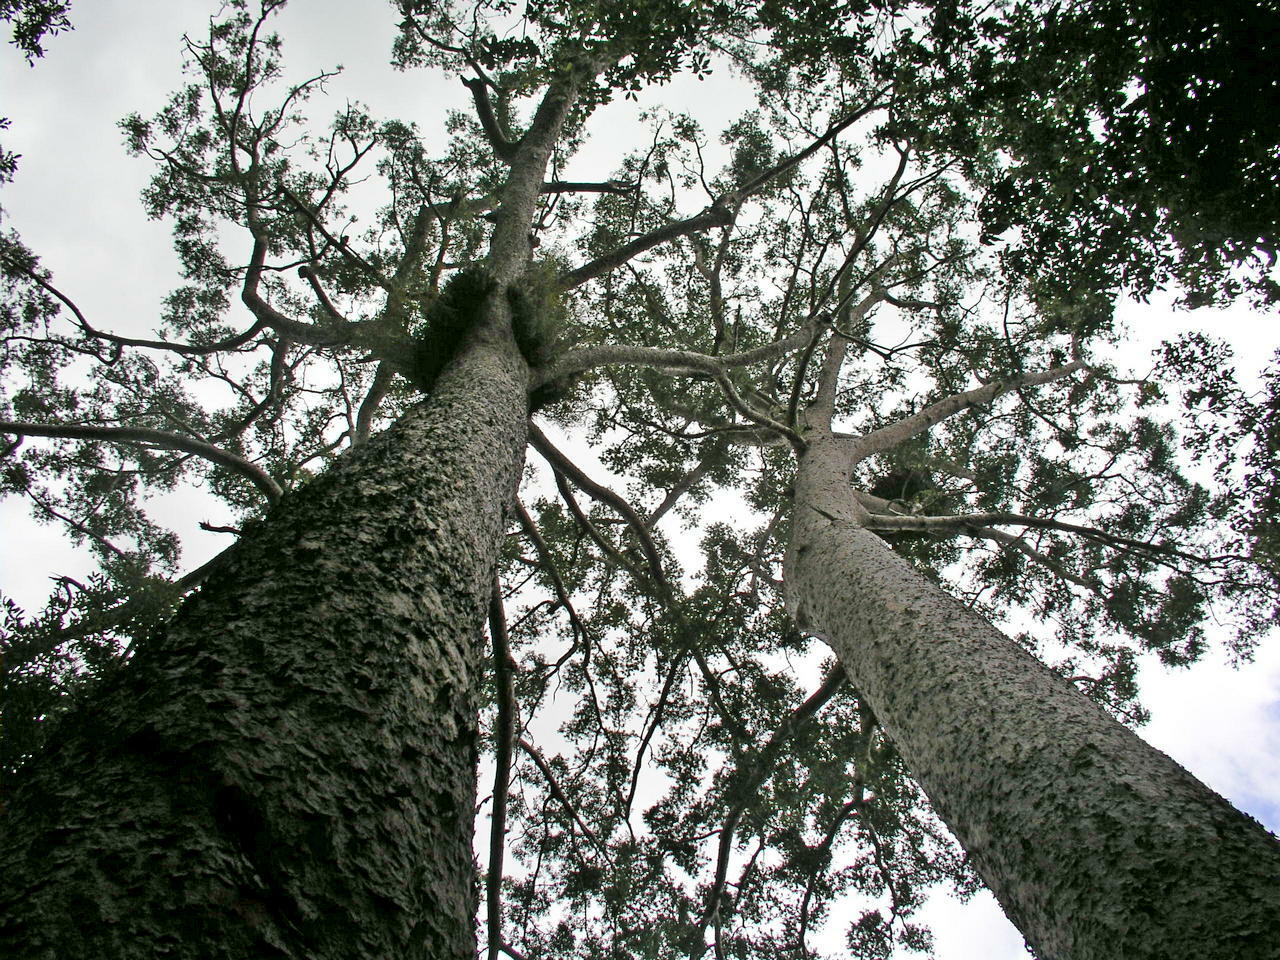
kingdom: Plantae
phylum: Tracheophyta
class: Pinopsida
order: Pinales
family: Araucariaceae
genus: Agathis
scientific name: Agathis microstachya
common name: Bull kauri
